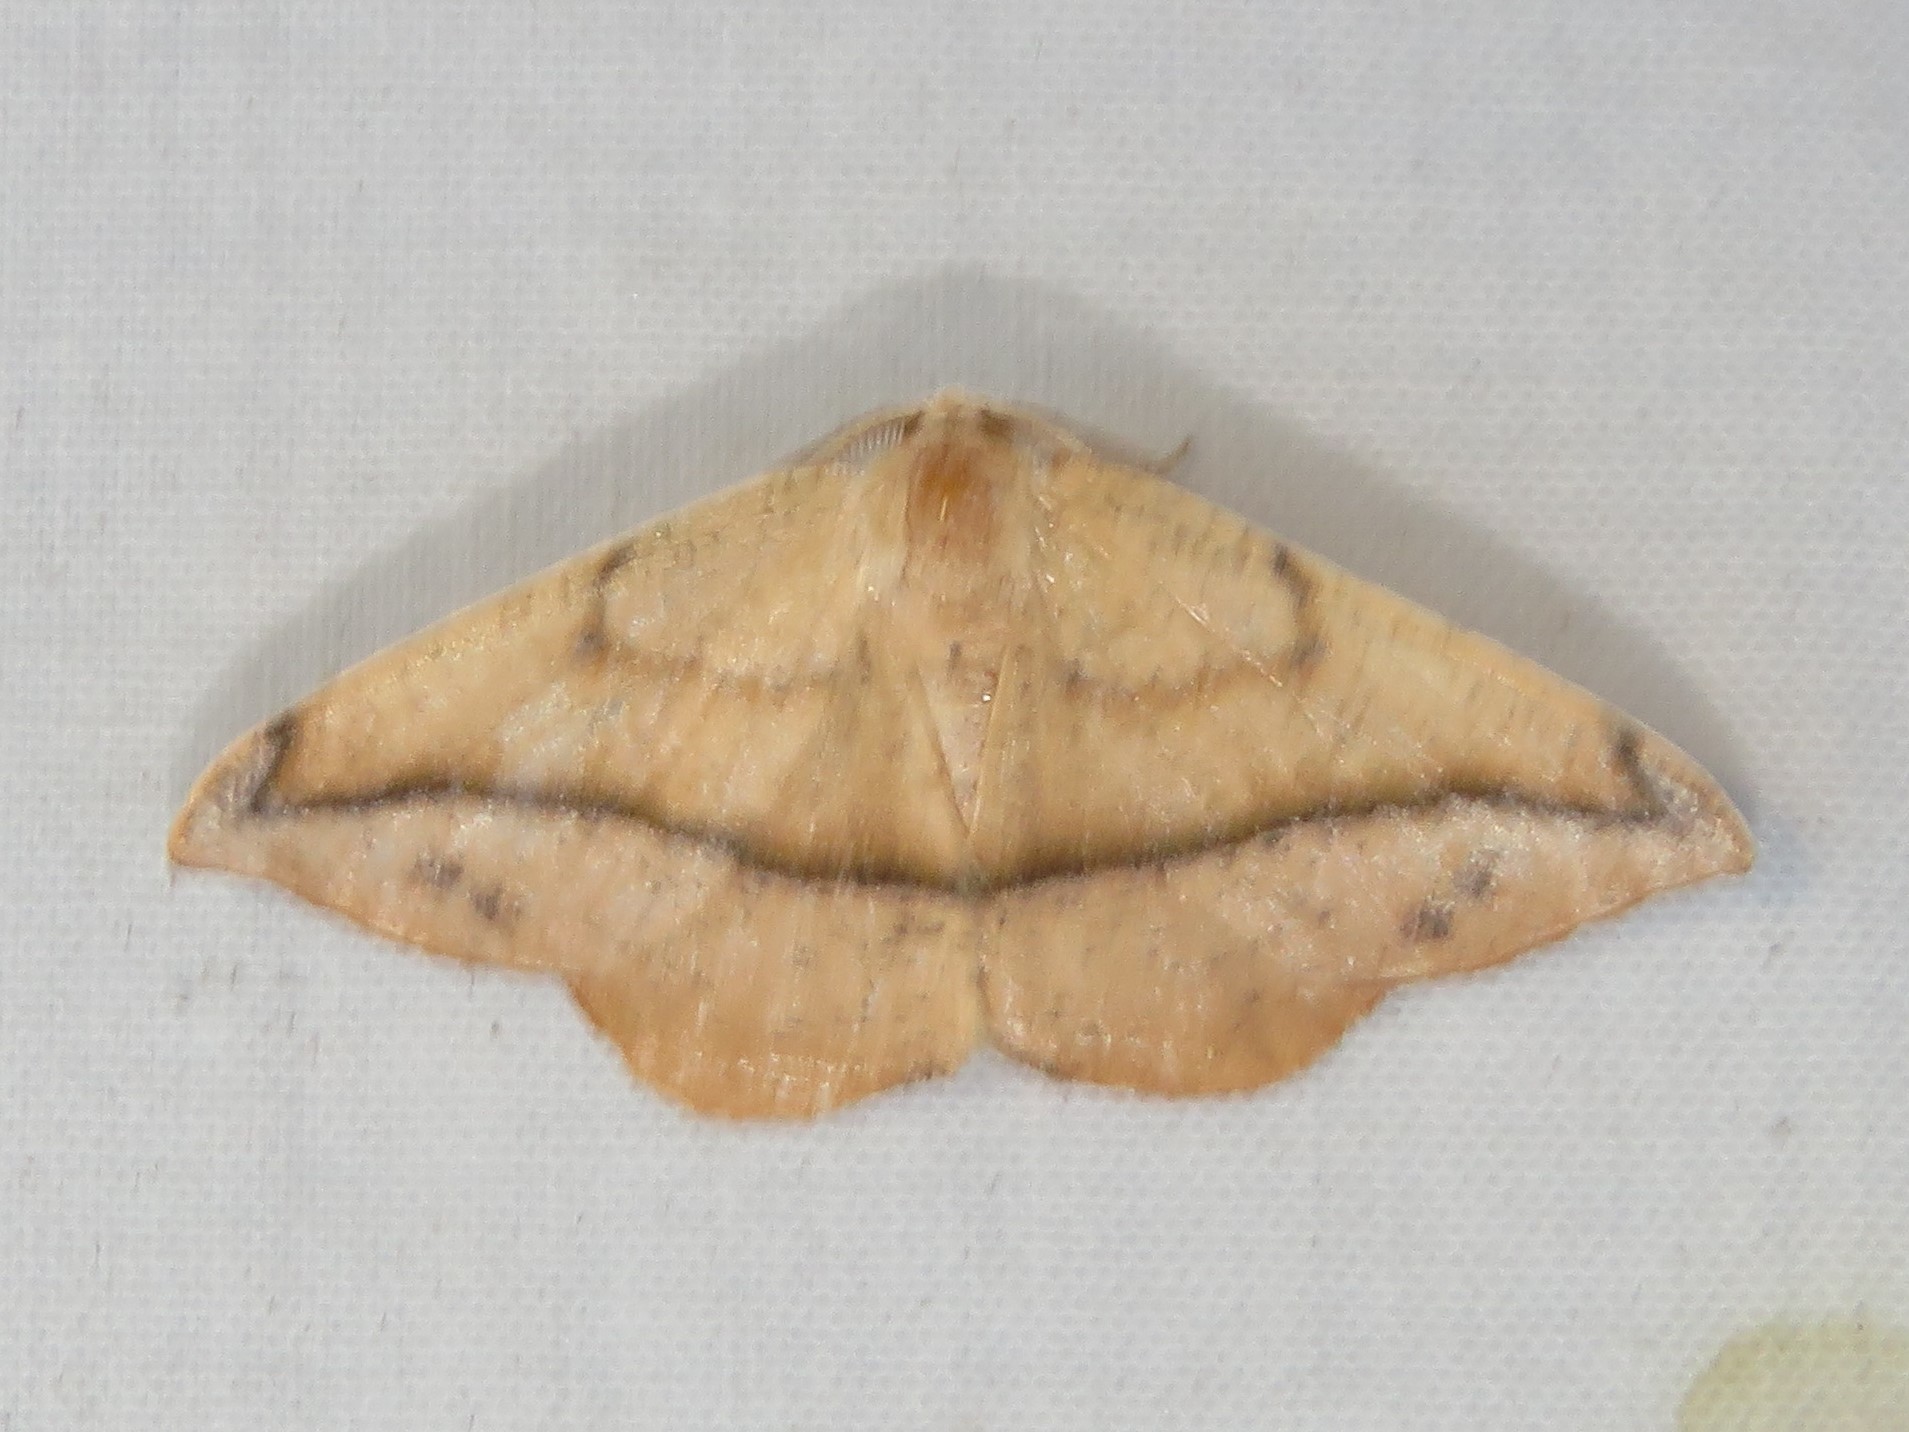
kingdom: Animalia
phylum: Arthropoda
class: Insecta
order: Lepidoptera
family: Geometridae
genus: Patalene
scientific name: Patalene olyzonaria
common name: Juniper geometer moth
